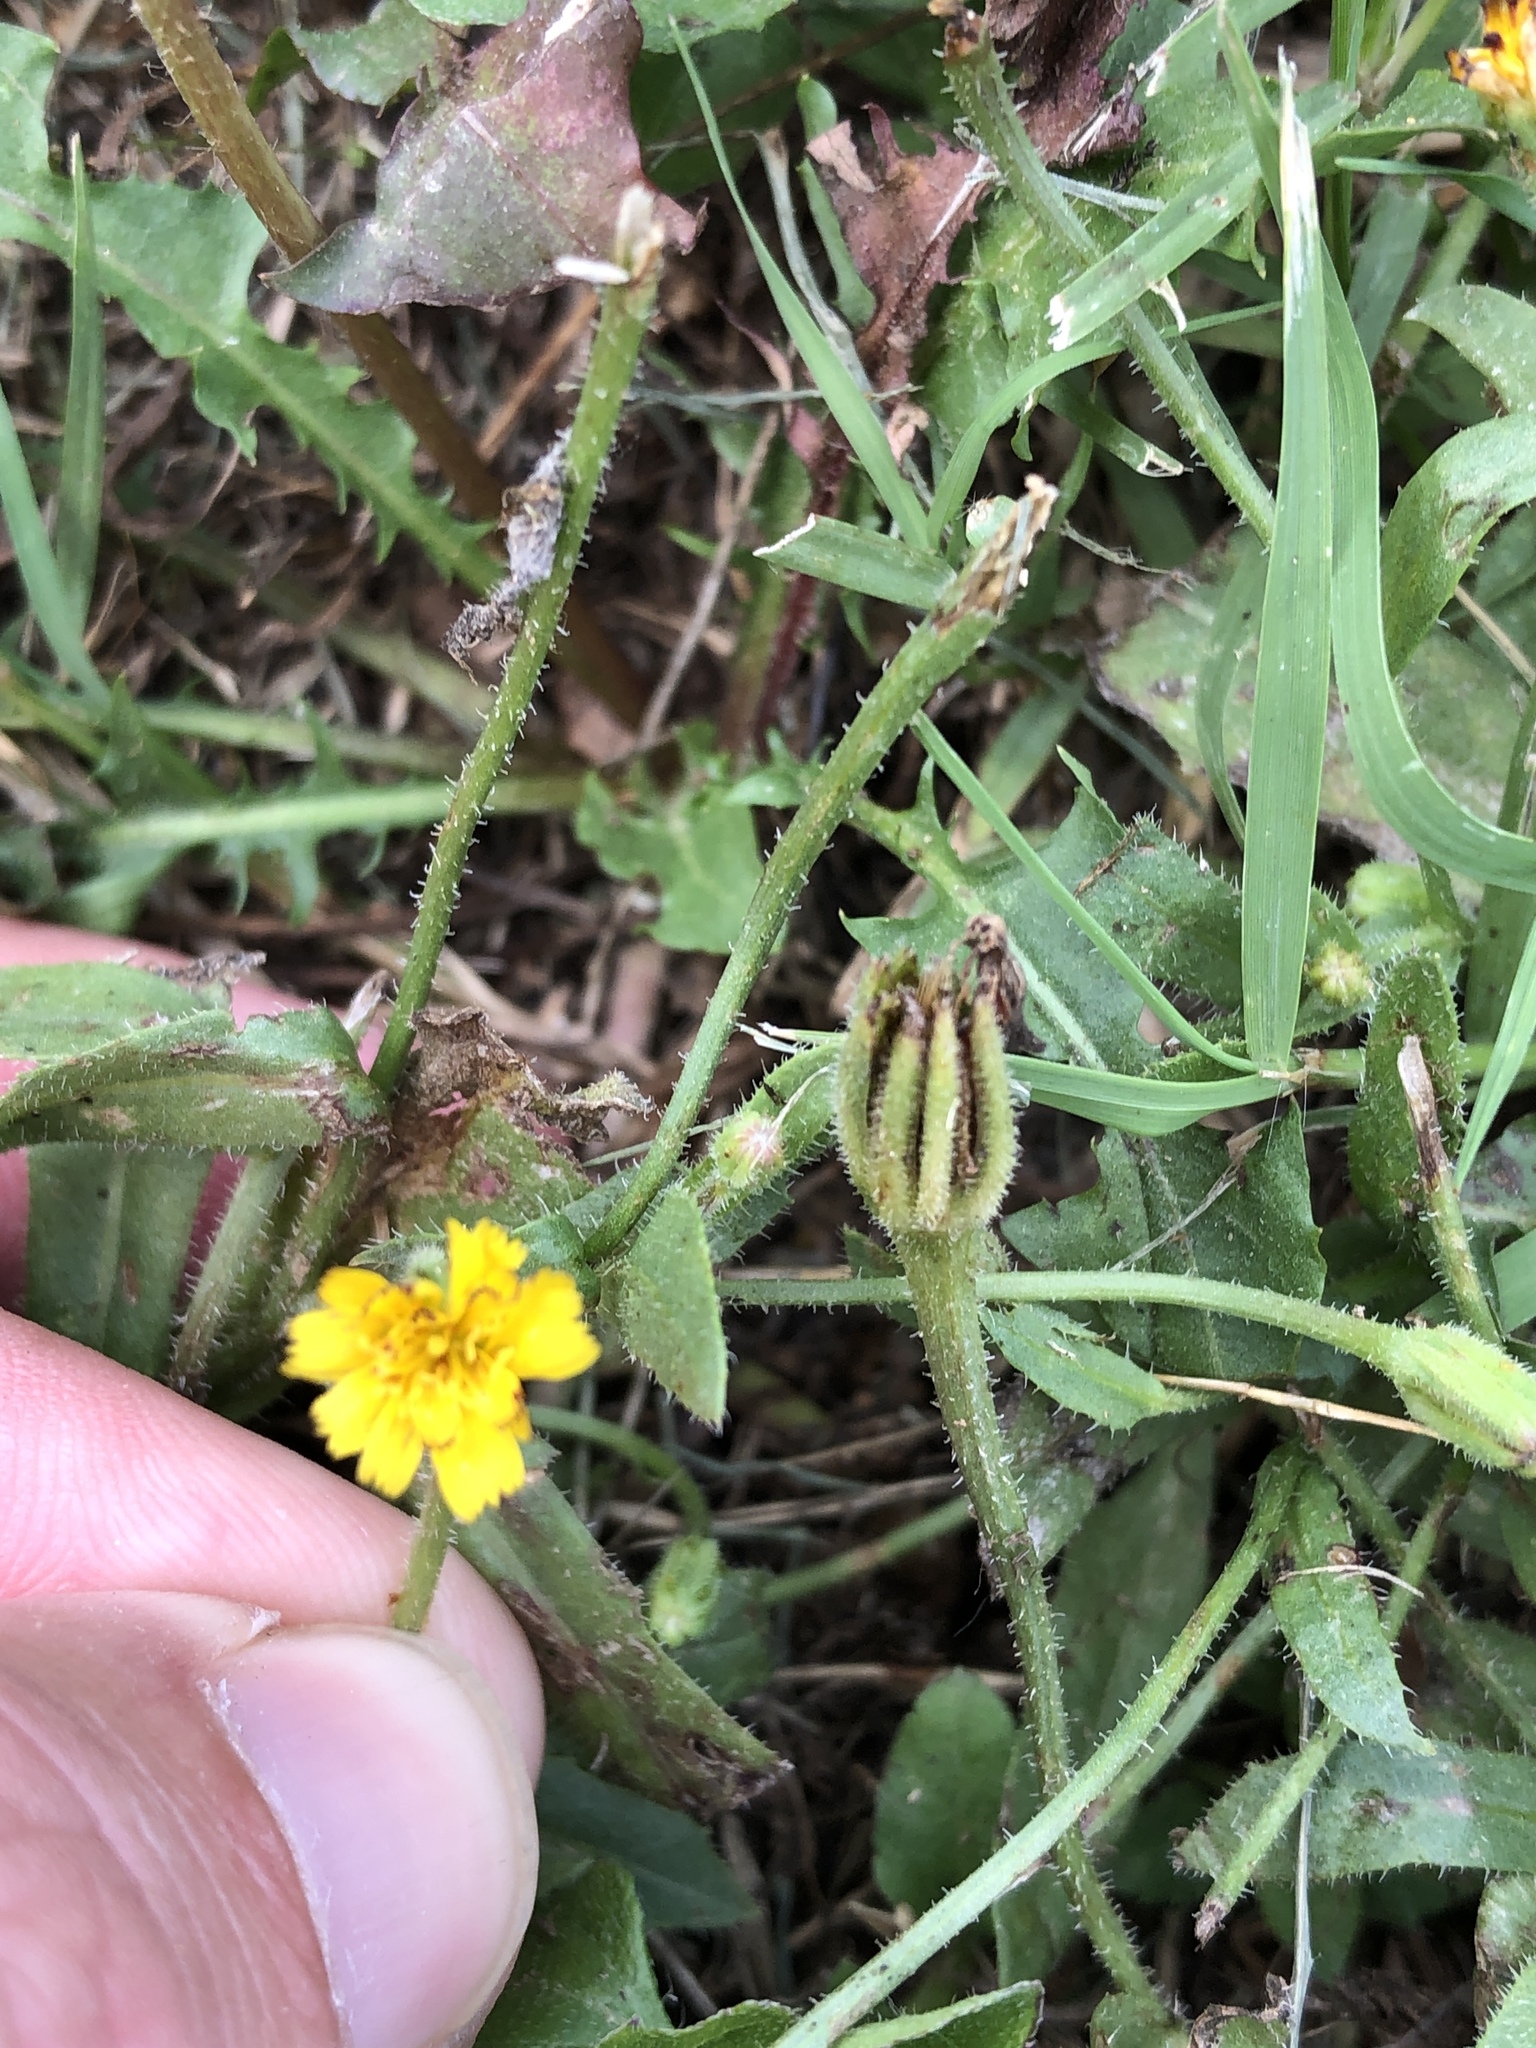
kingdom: Plantae
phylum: Tracheophyta
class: Magnoliopsida
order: Asterales
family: Asteraceae
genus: Hedypnois
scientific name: Hedypnois rhagadioloides
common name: Cretan weed
